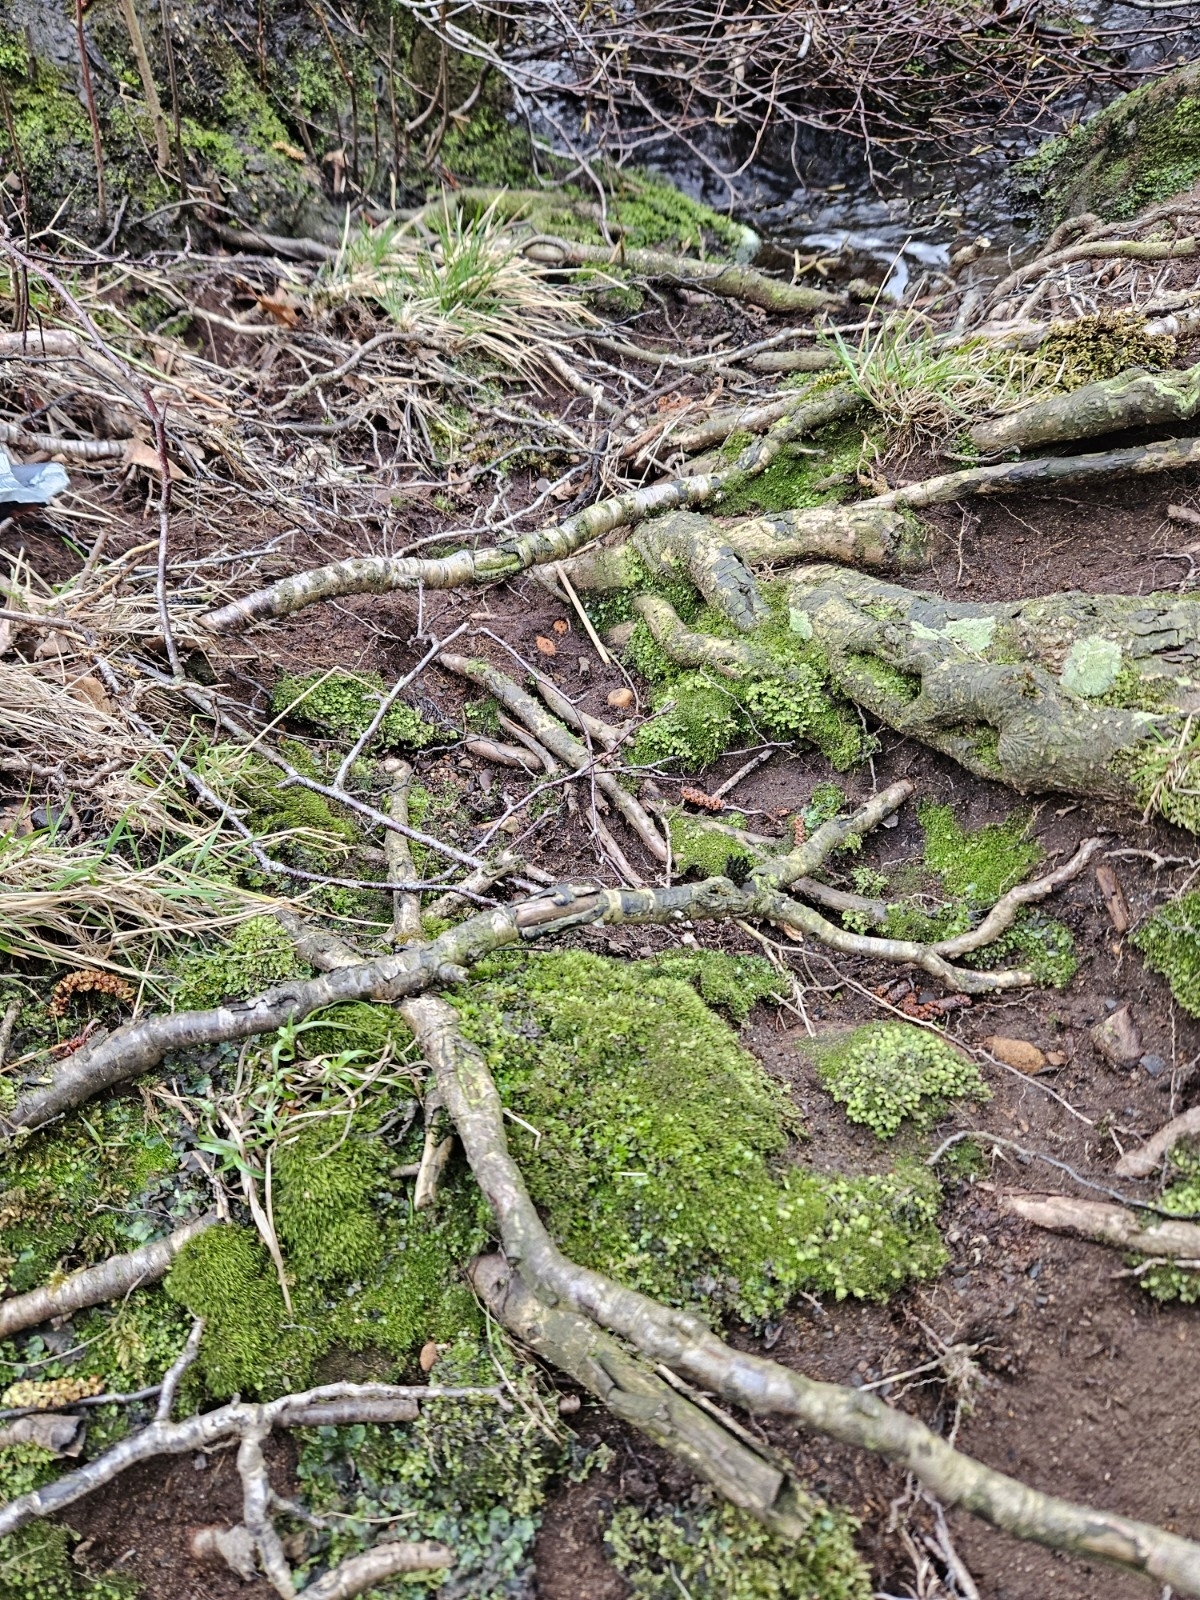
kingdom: Plantae
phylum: Bryophyta
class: Bryopsida
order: Dicranales
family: Dicranellaceae
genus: Dicranella
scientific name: Dicranella heteromalla
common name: Silky forklet moss
